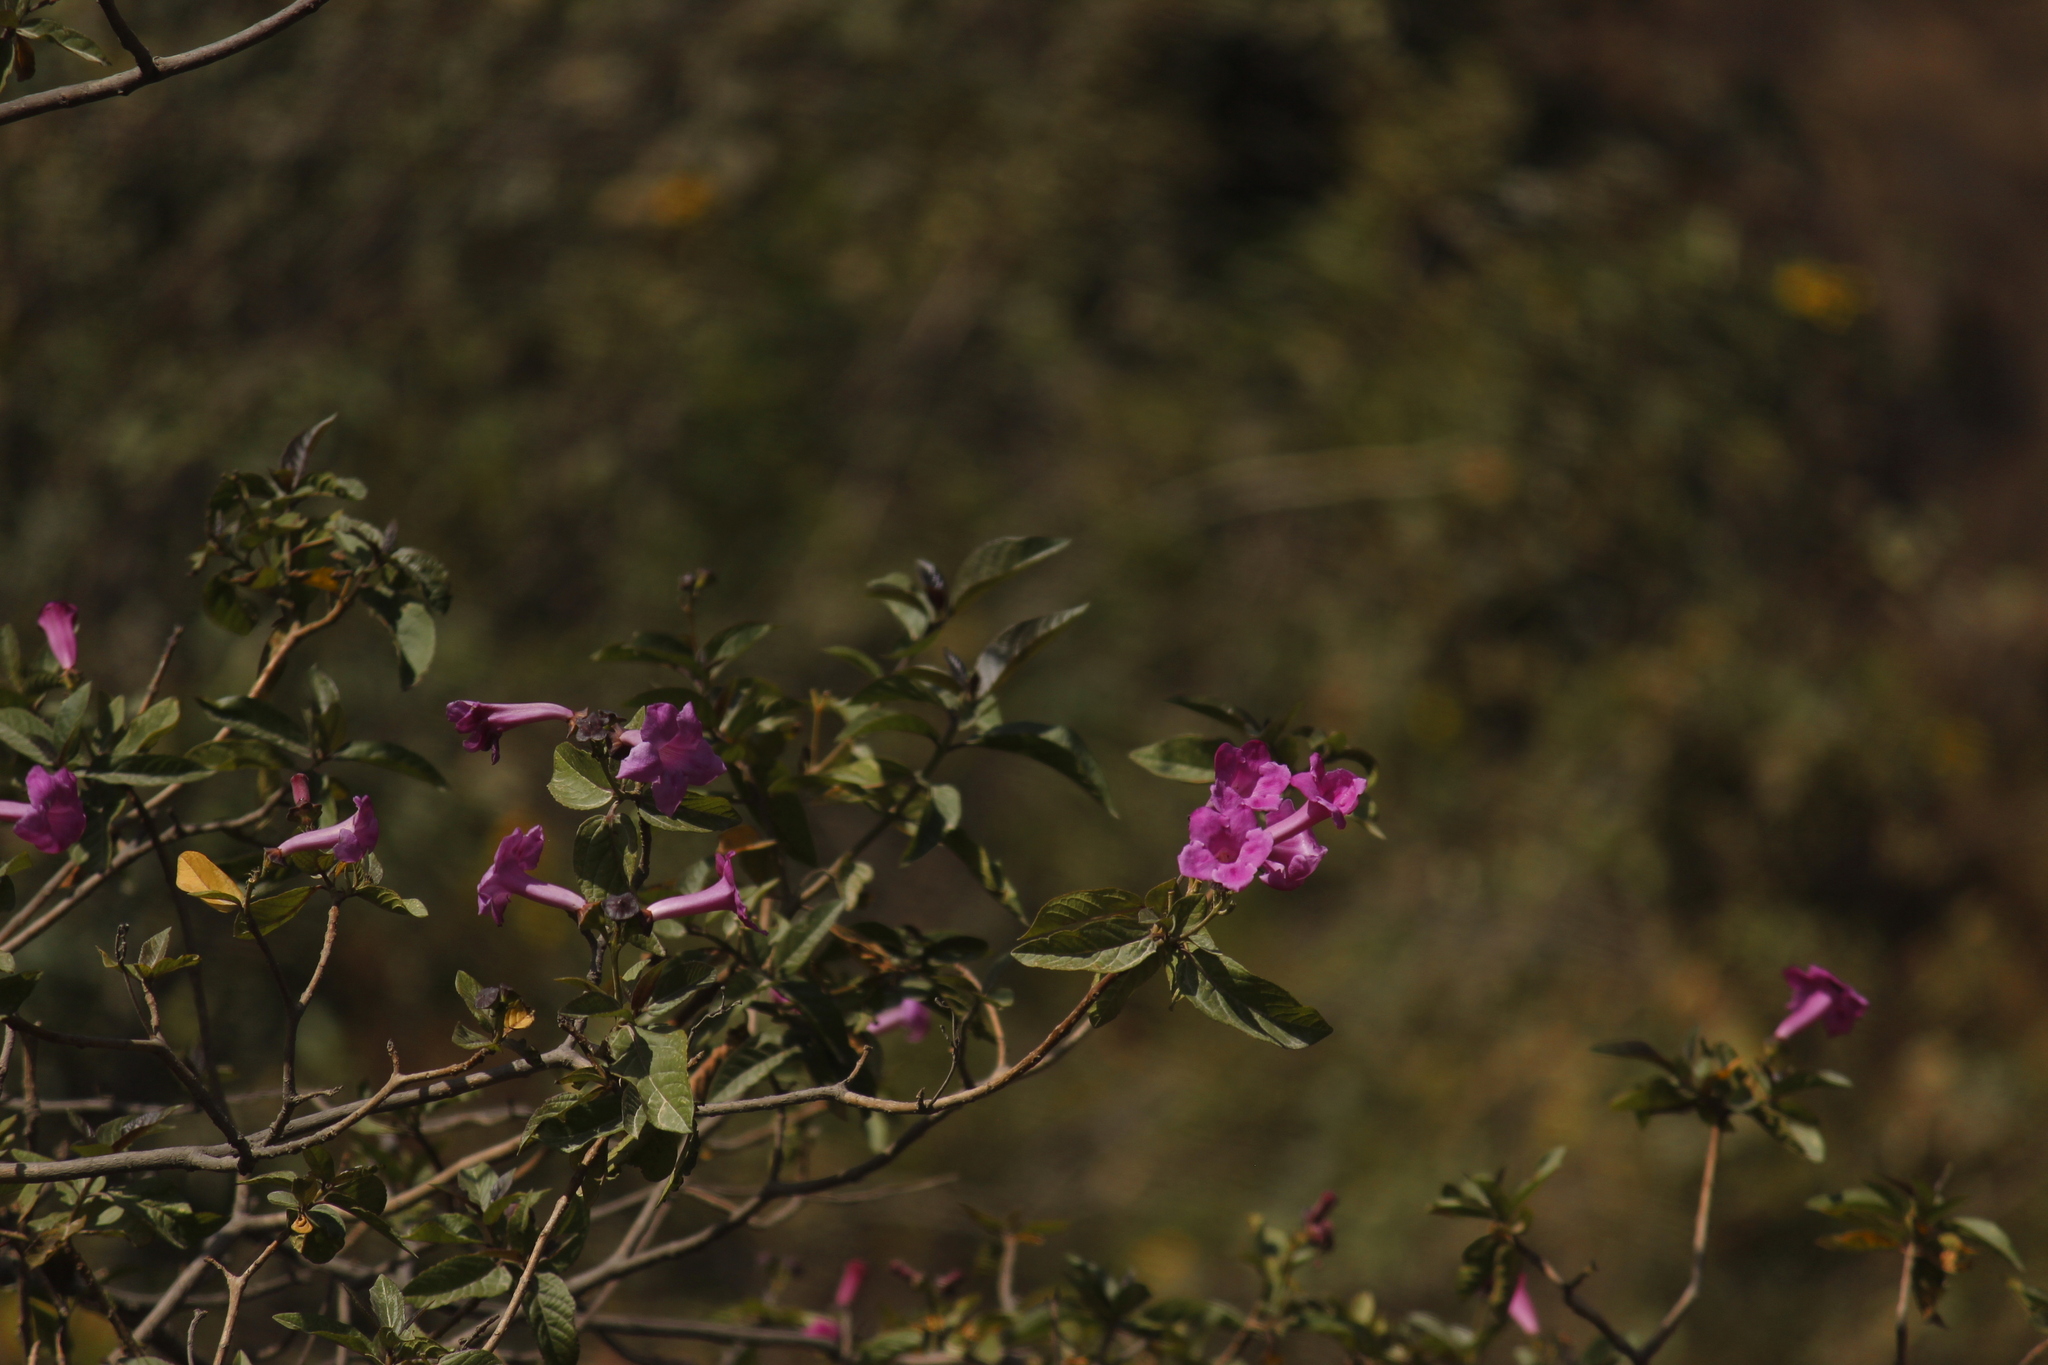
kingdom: Plantae
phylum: Tracheophyta
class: Magnoliopsida
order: Lamiales
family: Bignoniaceae
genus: Delostoma
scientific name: Delostoma dentatum
